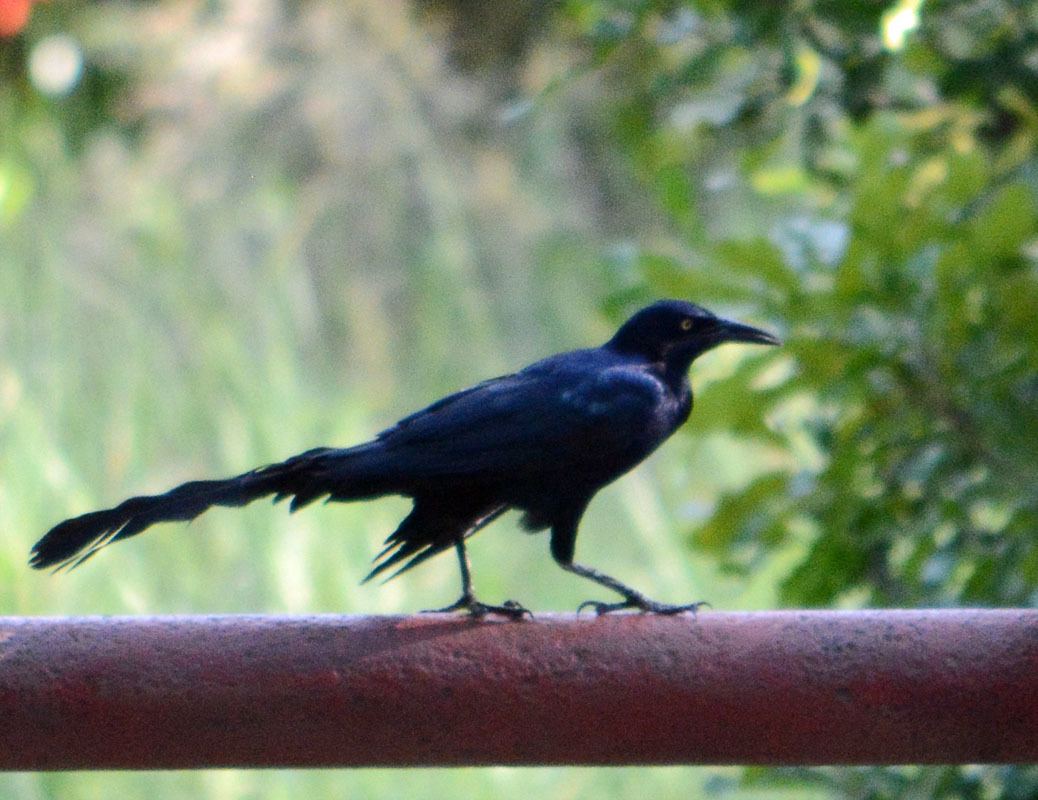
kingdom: Animalia
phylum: Chordata
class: Aves
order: Passeriformes
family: Icteridae
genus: Quiscalus
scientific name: Quiscalus mexicanus
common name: Great-tailed grackle
